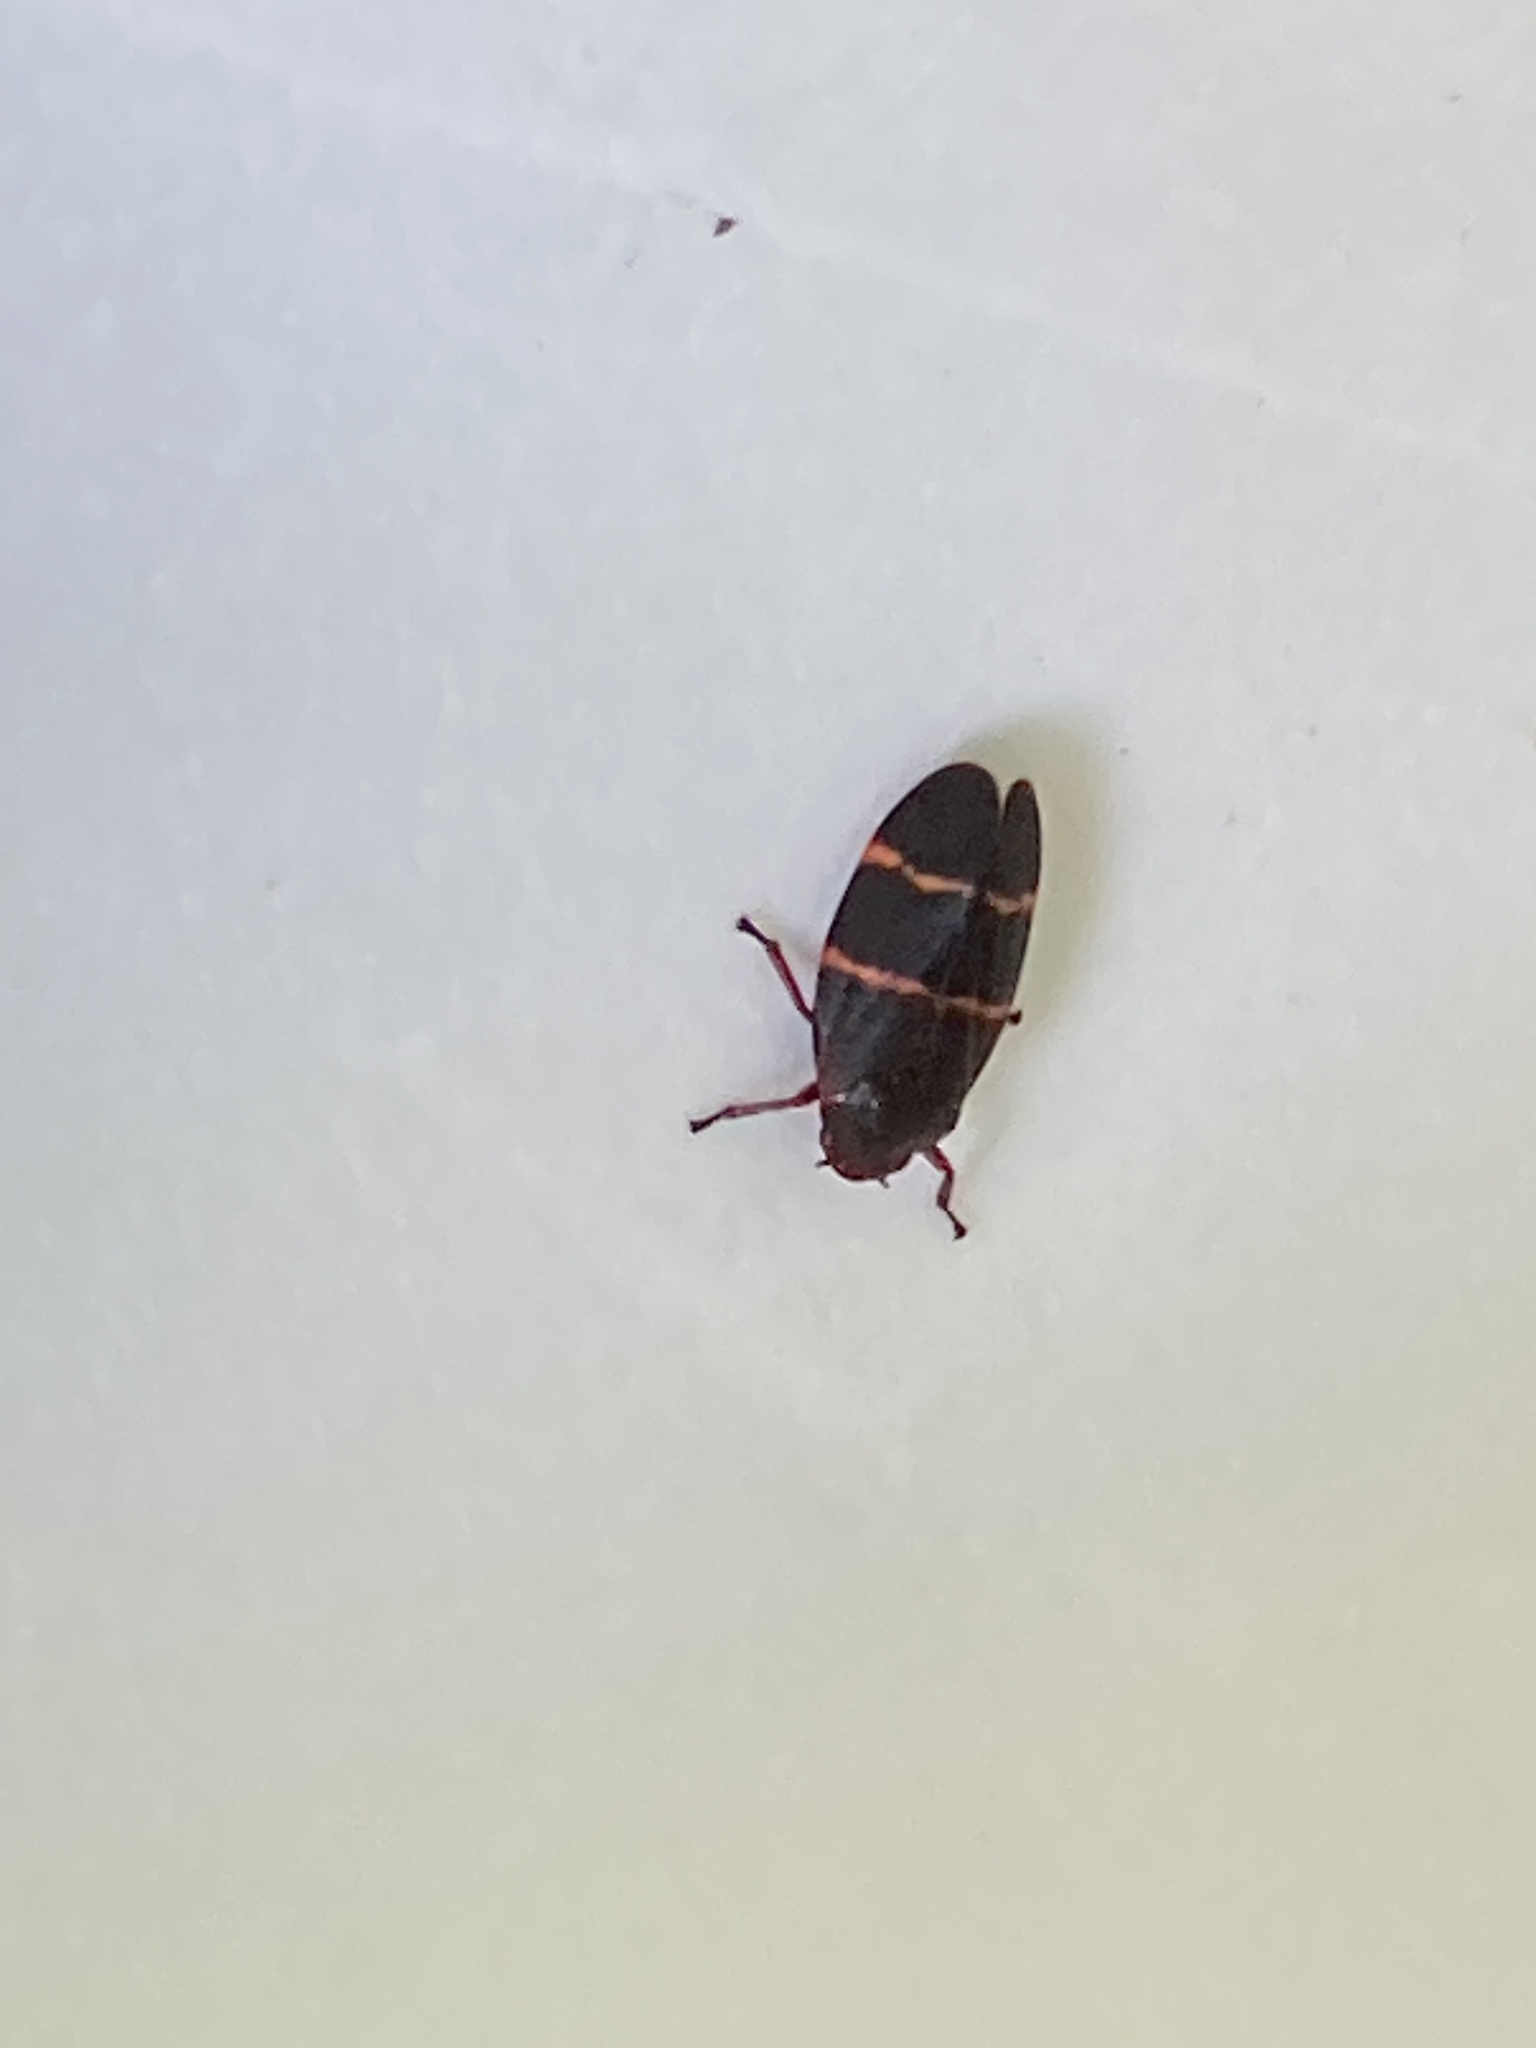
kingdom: Animalia
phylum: Arthropoda
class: Insecta
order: Hemiptera
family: Cercopidae
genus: Prosapia
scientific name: Prosapia bicincta
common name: Twolined spittlebug
